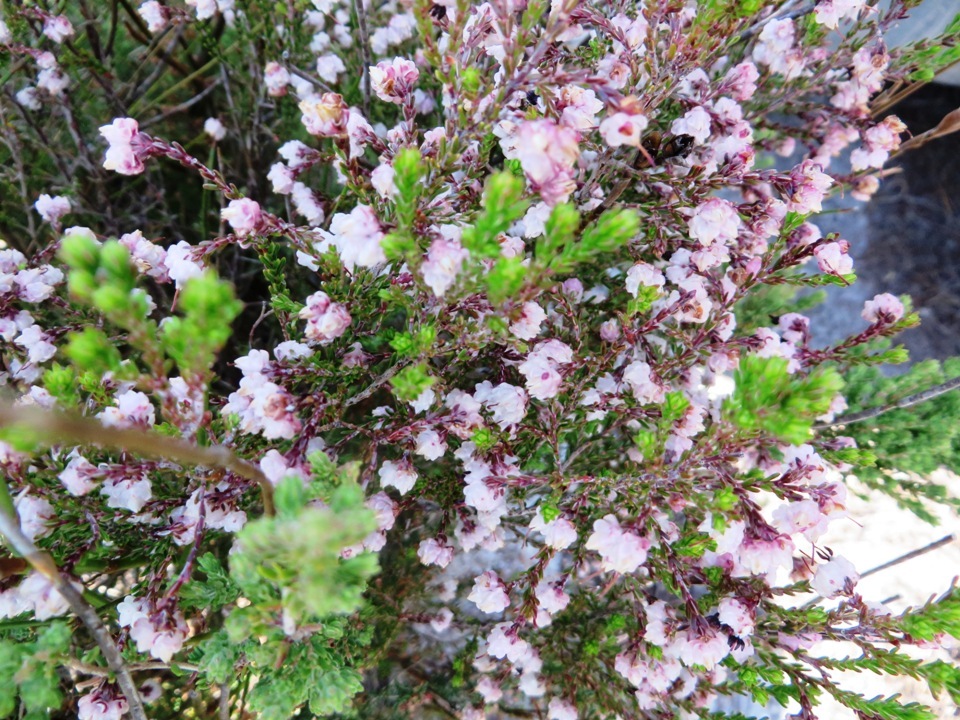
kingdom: Plantae
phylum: Tracheophyta
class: Magnoliopsida
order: Ericales
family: Ericaceae
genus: Erica
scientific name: Erica spumosa
